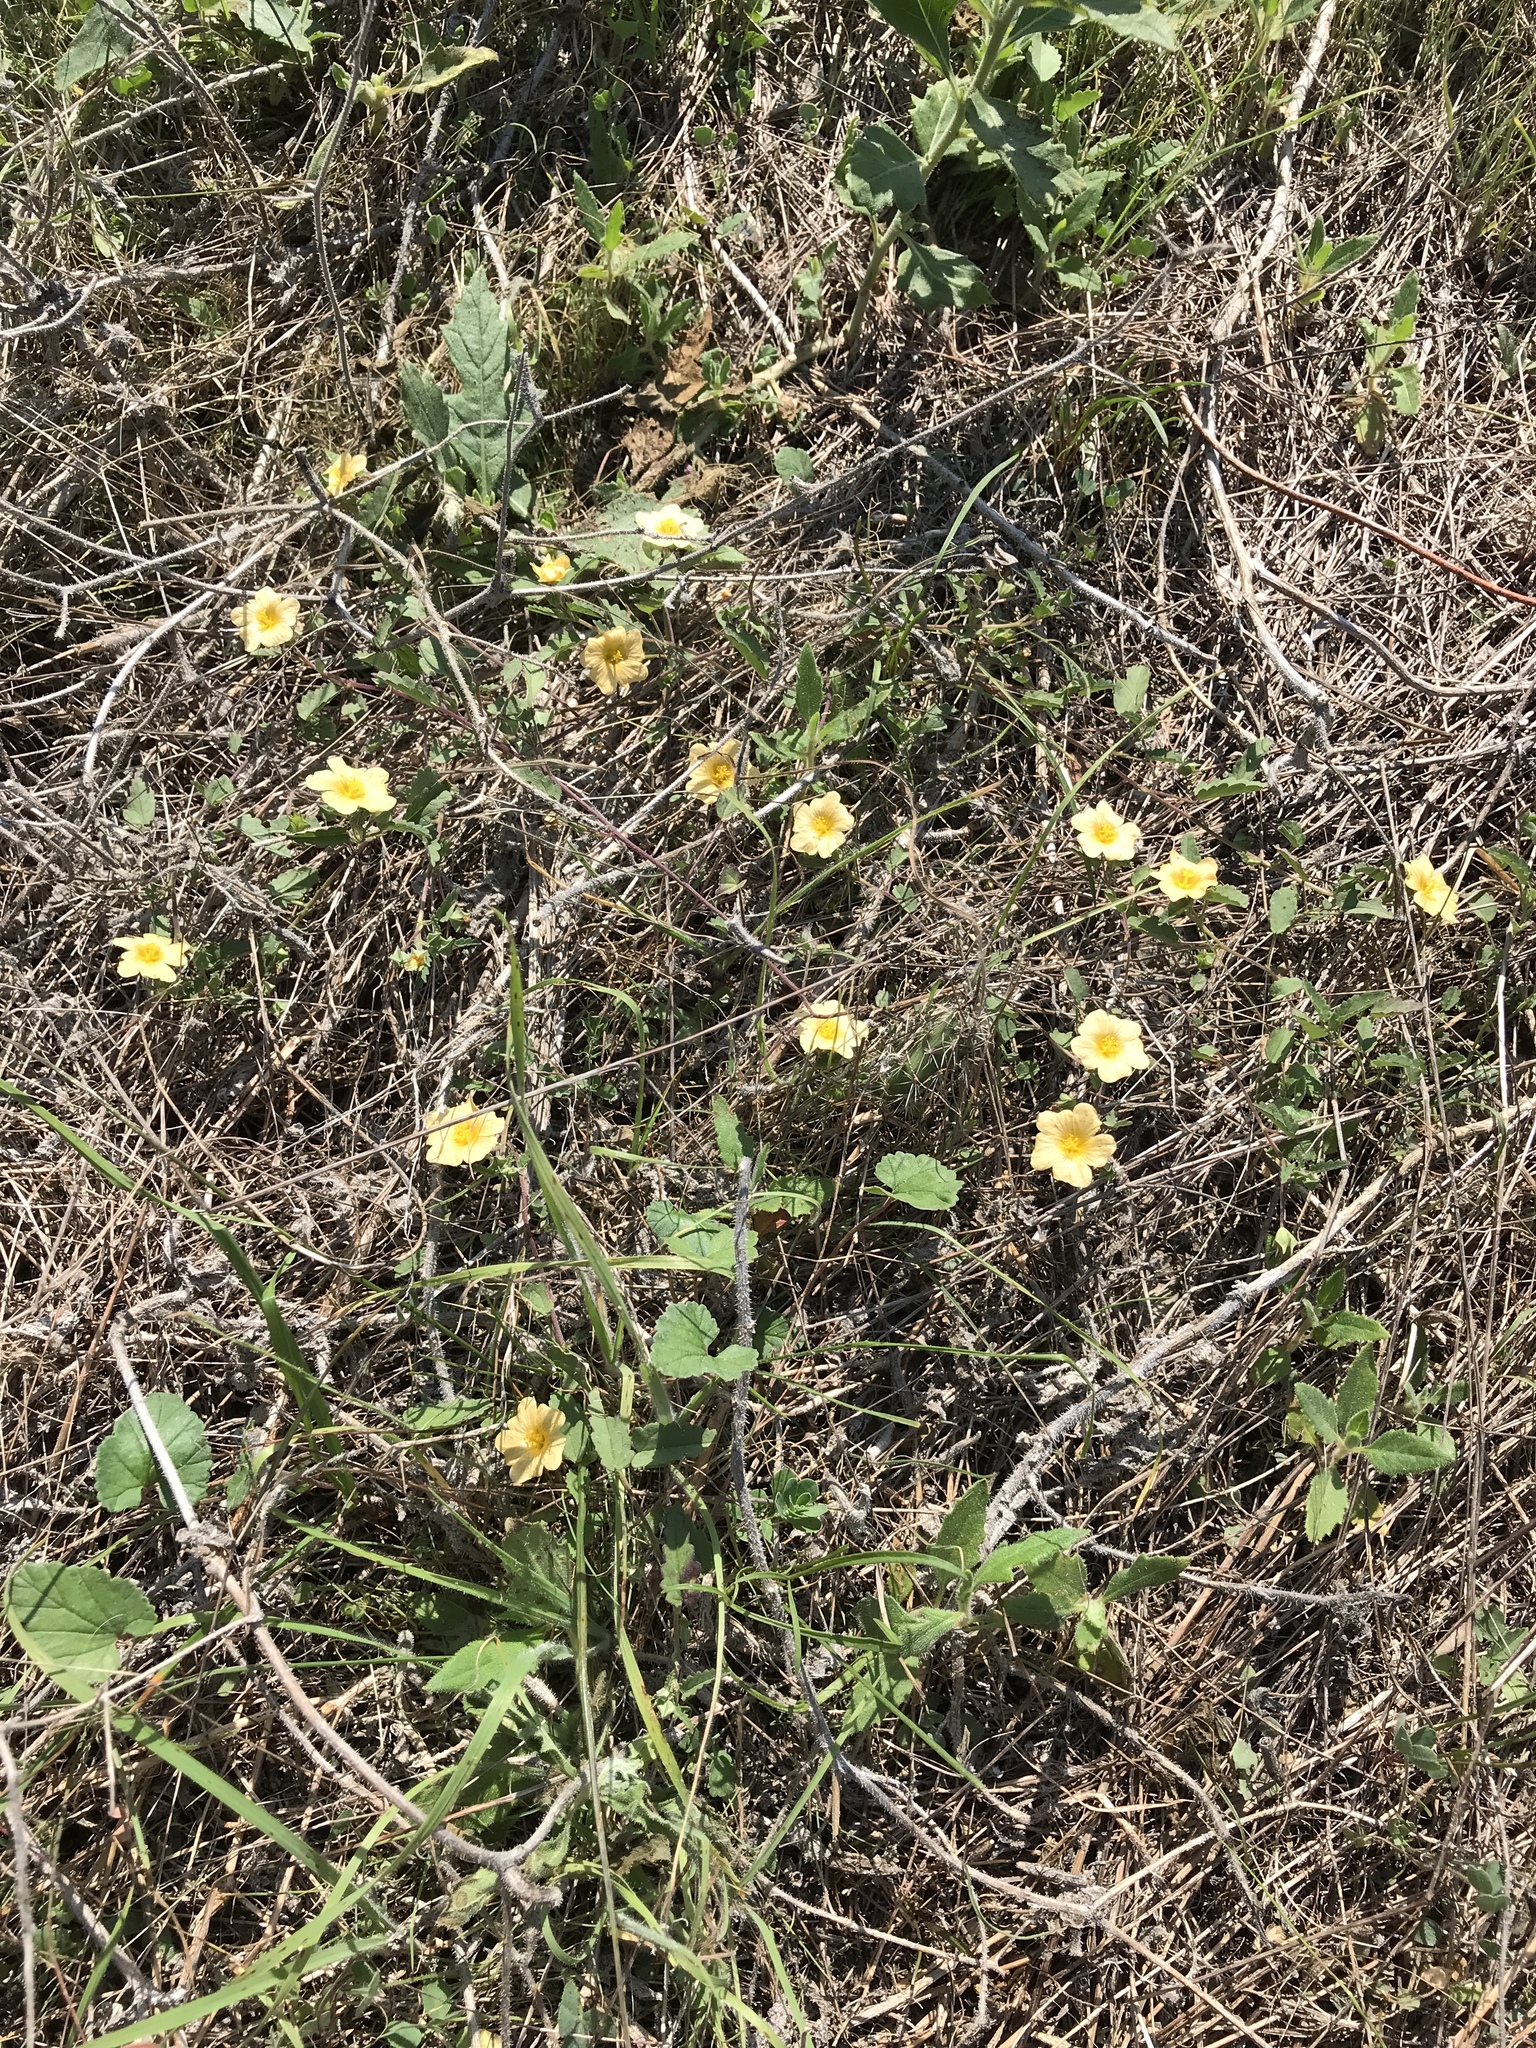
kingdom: Plantae
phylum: Tracheophyta
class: Magnoliopsida
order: Malvales
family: Malvaceae
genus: Sida
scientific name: Sida abutilifolia
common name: Spreading fanpetals
